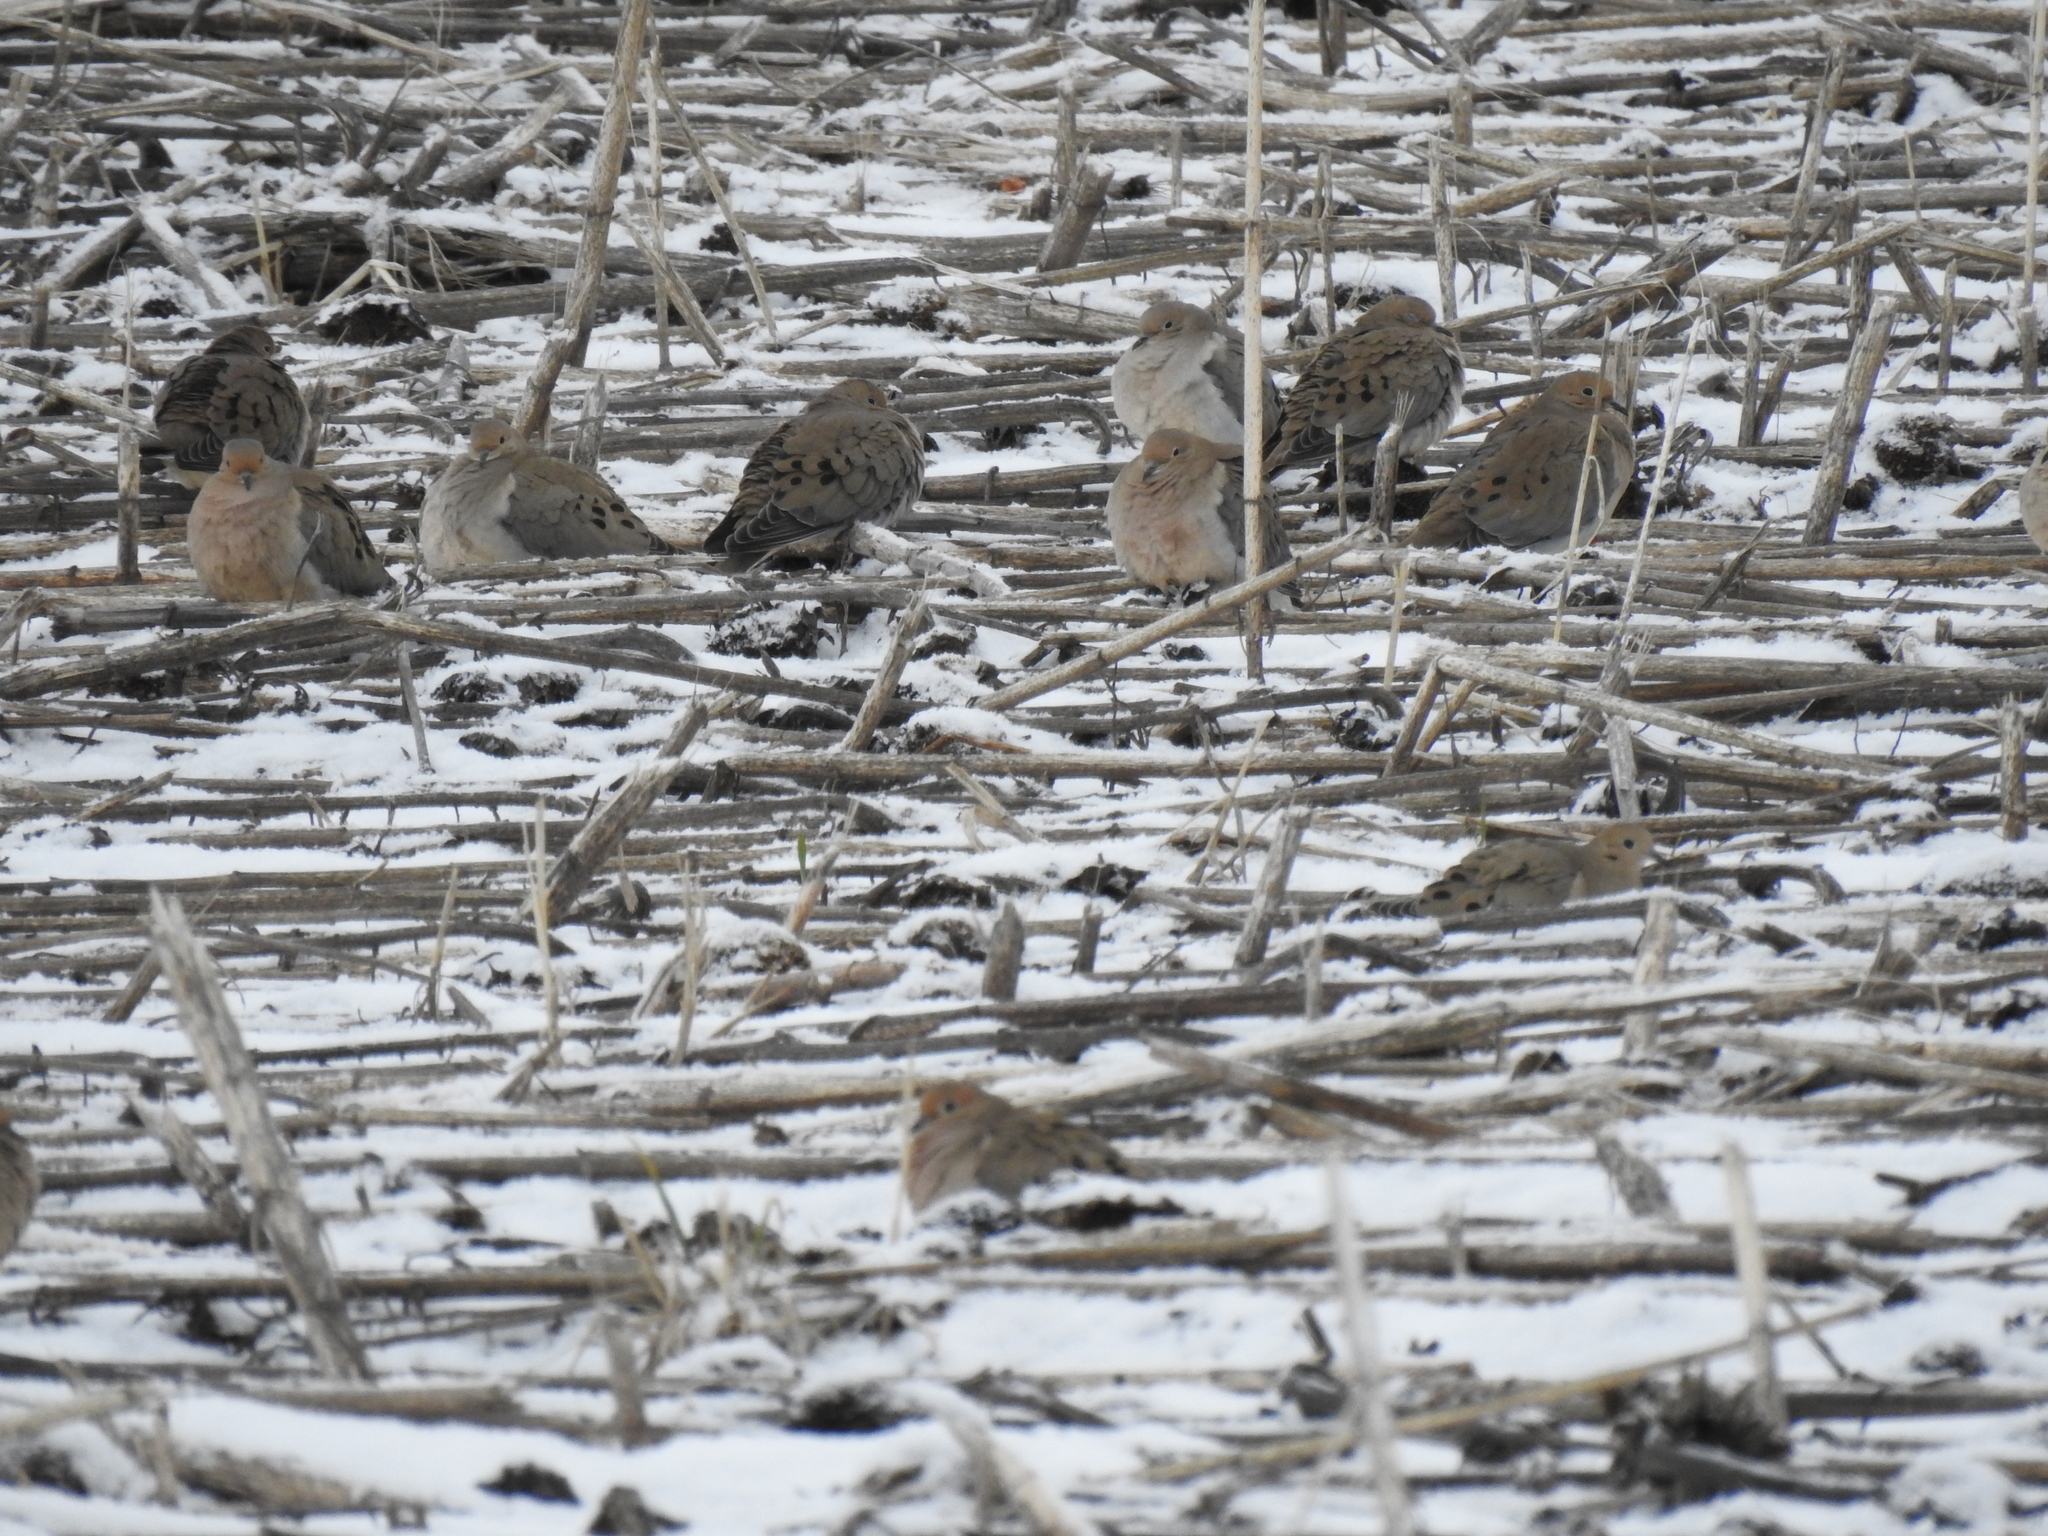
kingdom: Animalia
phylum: Chordata
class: Aves
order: Columbiformes
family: Columbidae
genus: Zenaida
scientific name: Zenaida macroura
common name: Mourning dove
